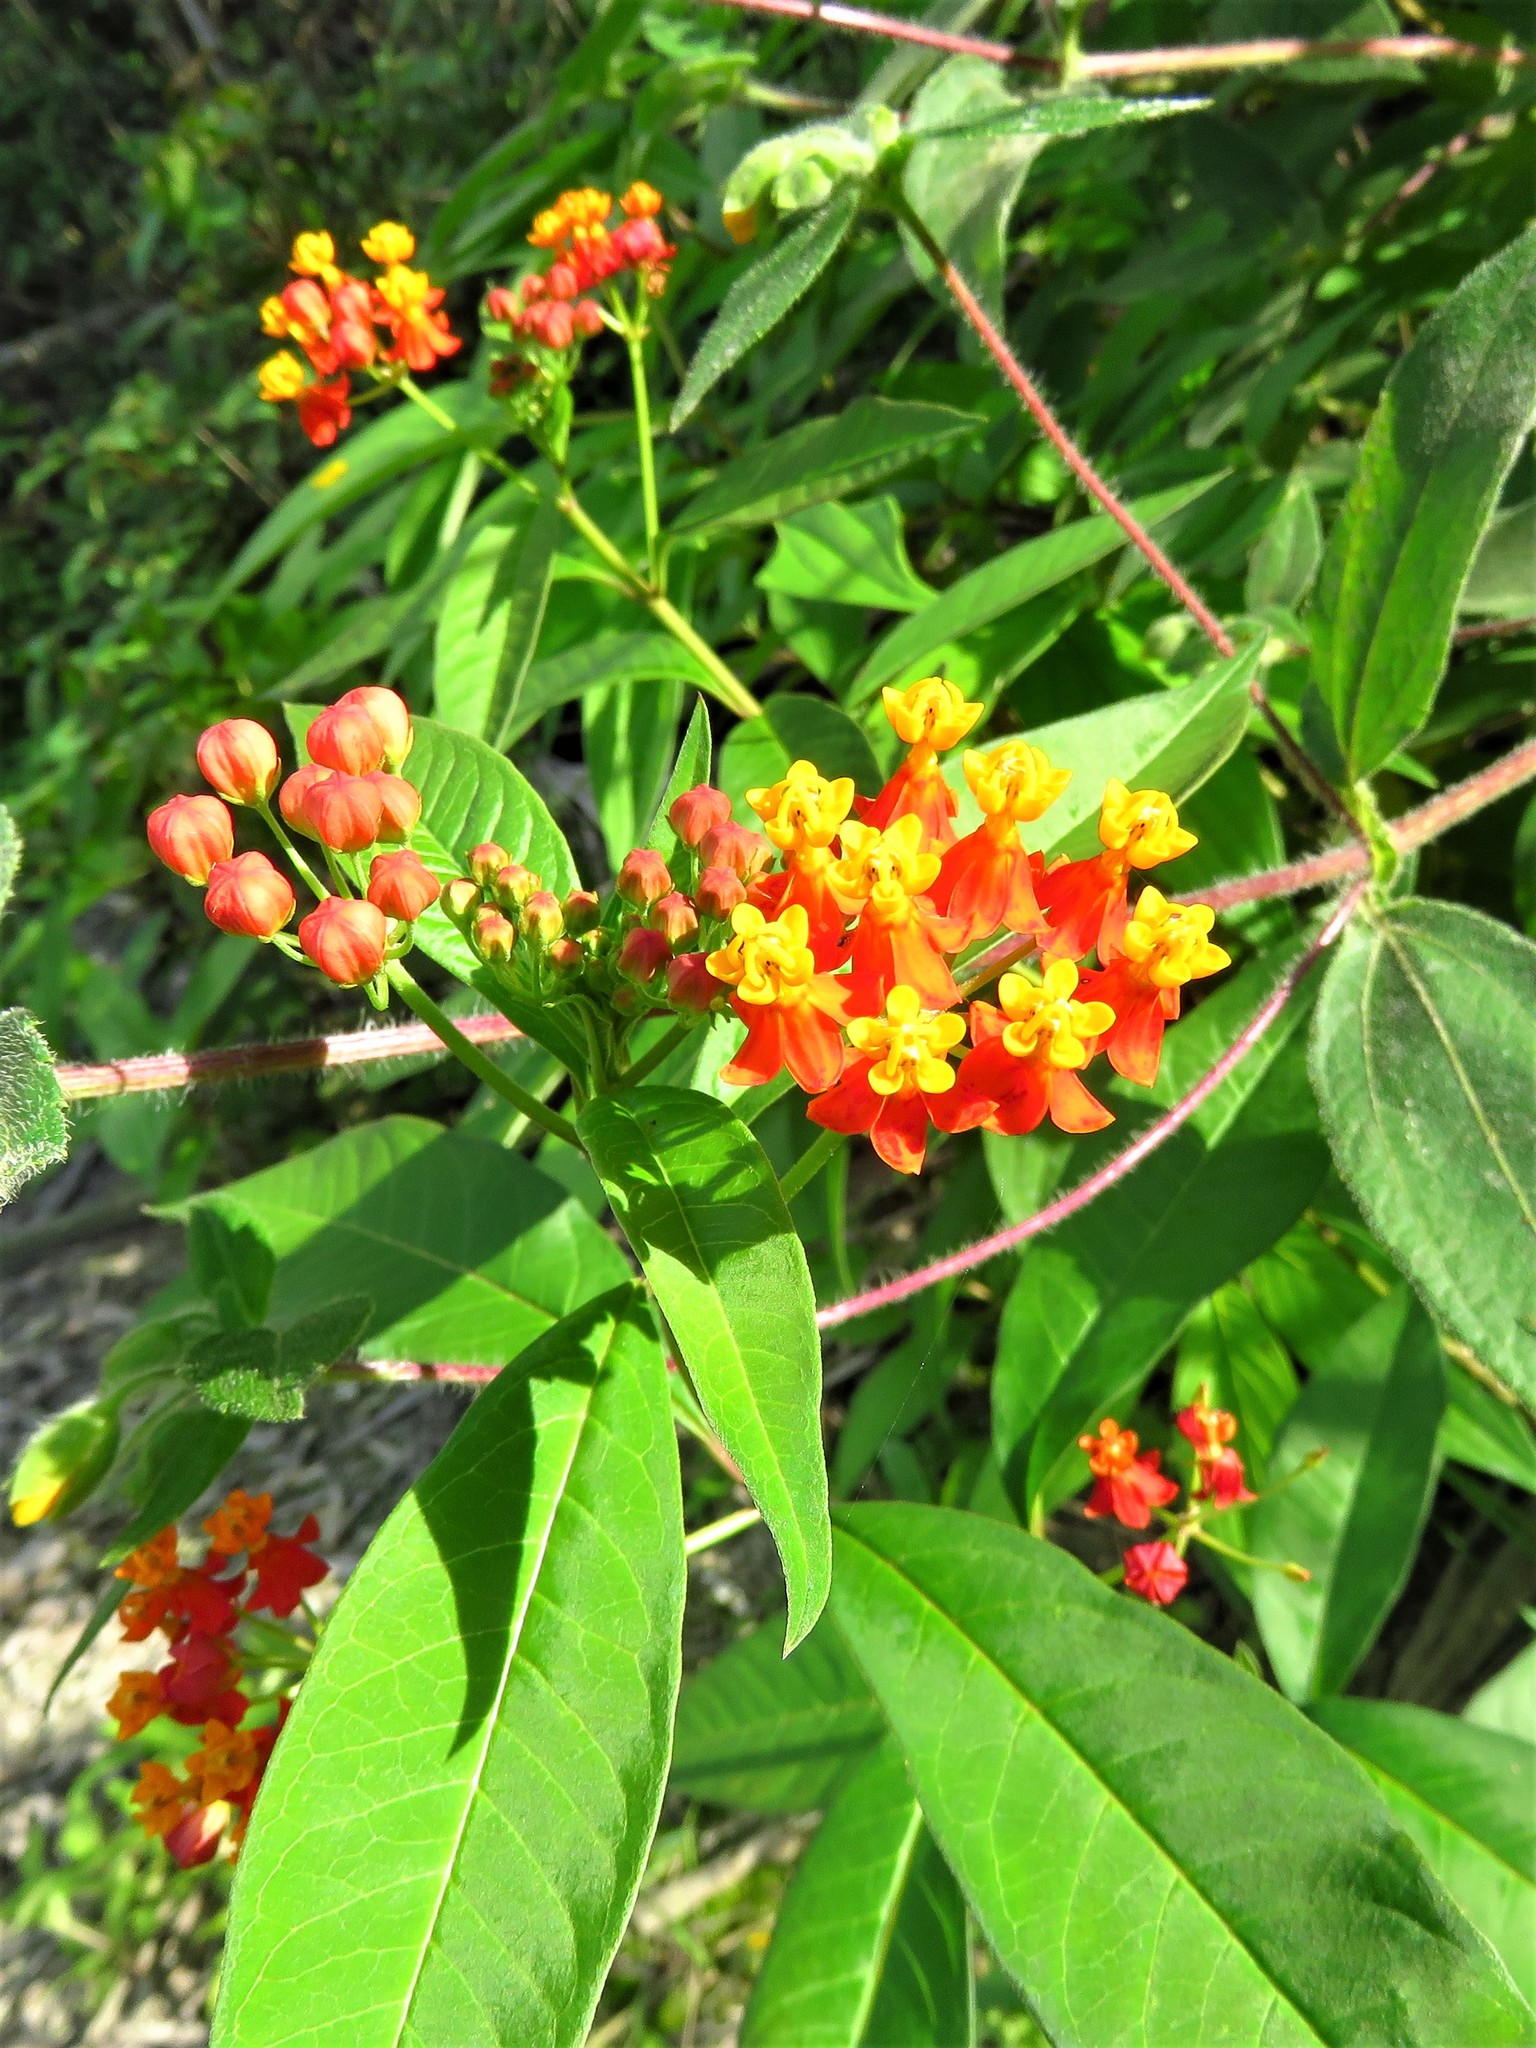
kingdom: Plantae
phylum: Tracheophyta
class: Magnoliopsida
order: Gentianales
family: Apocynaceae
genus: Asclepias
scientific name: Asclepias curassavica
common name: Bloodflower
